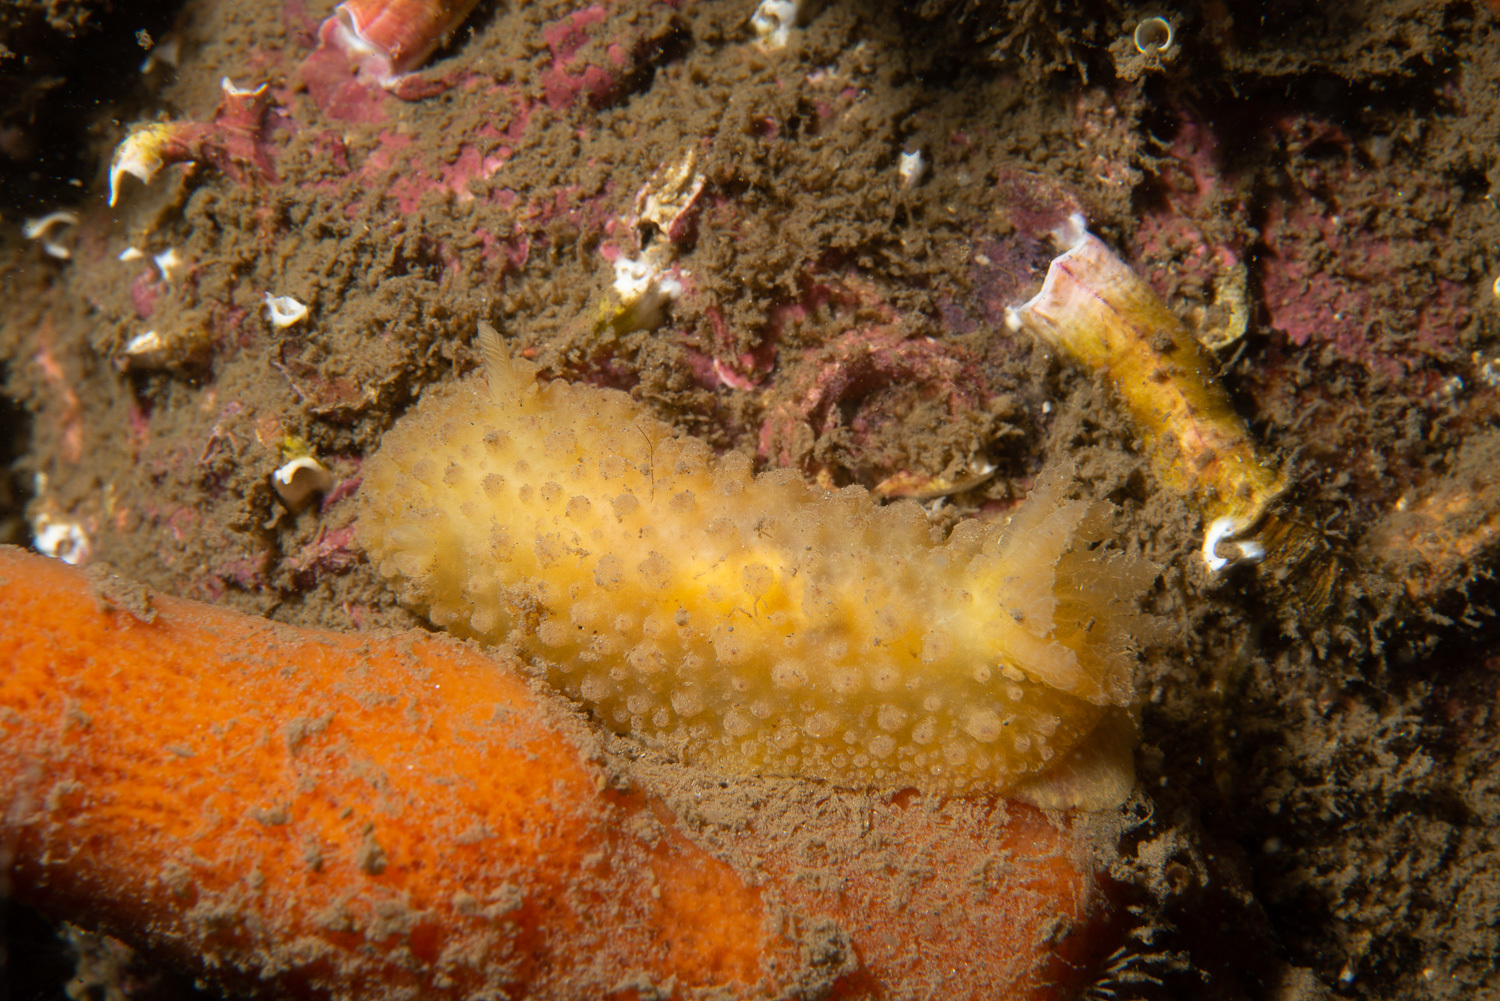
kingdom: Animalia
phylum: Mollusca
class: Gastropoda
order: Nudibranchia
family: Dorididae
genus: Doris
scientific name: Doris ocelligera
